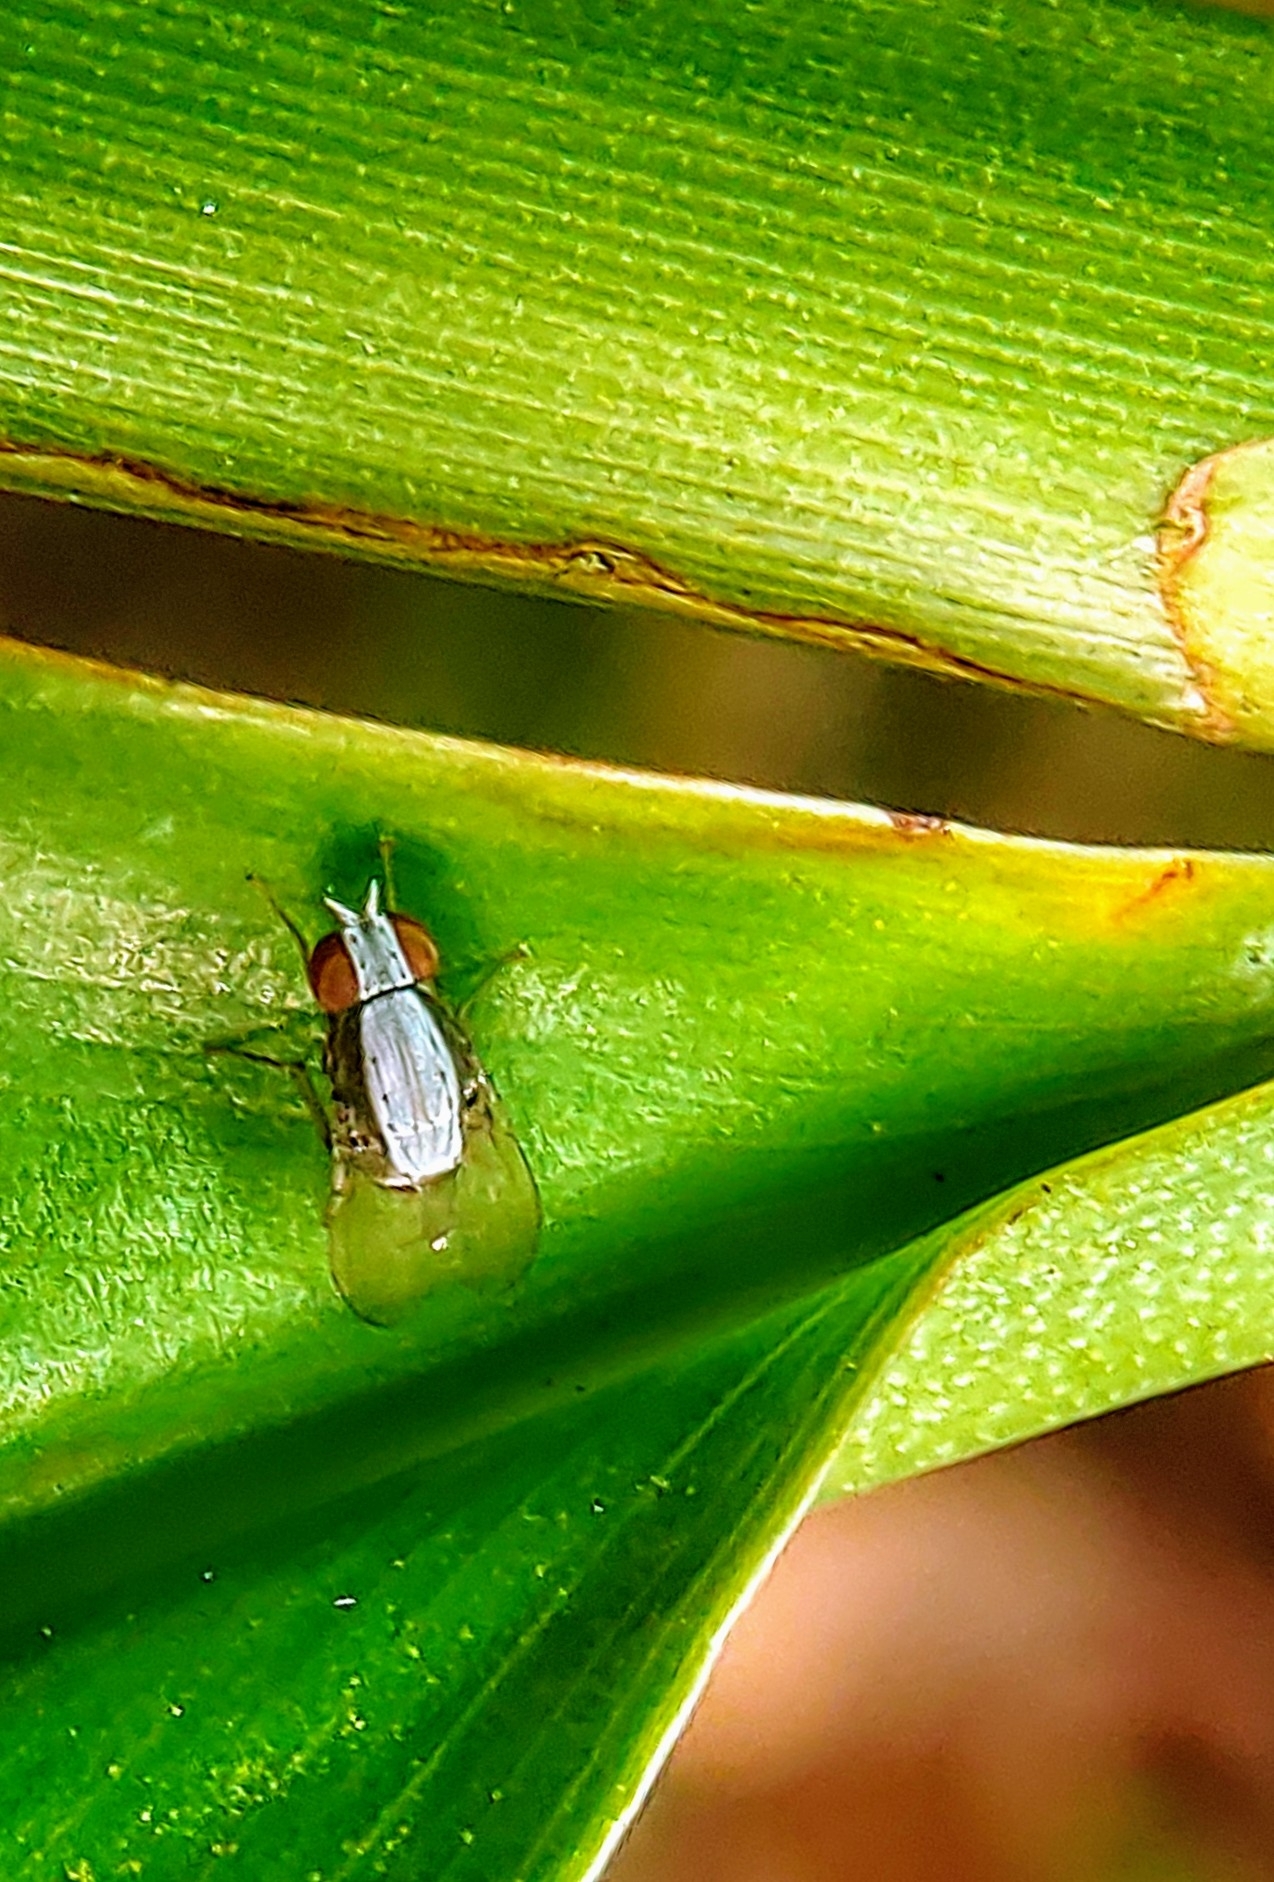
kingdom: Animalia
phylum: Arthropoda
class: Insecta
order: Diptera
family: Lauxaniidae
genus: Homoneura
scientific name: Homoneura discoglauca
